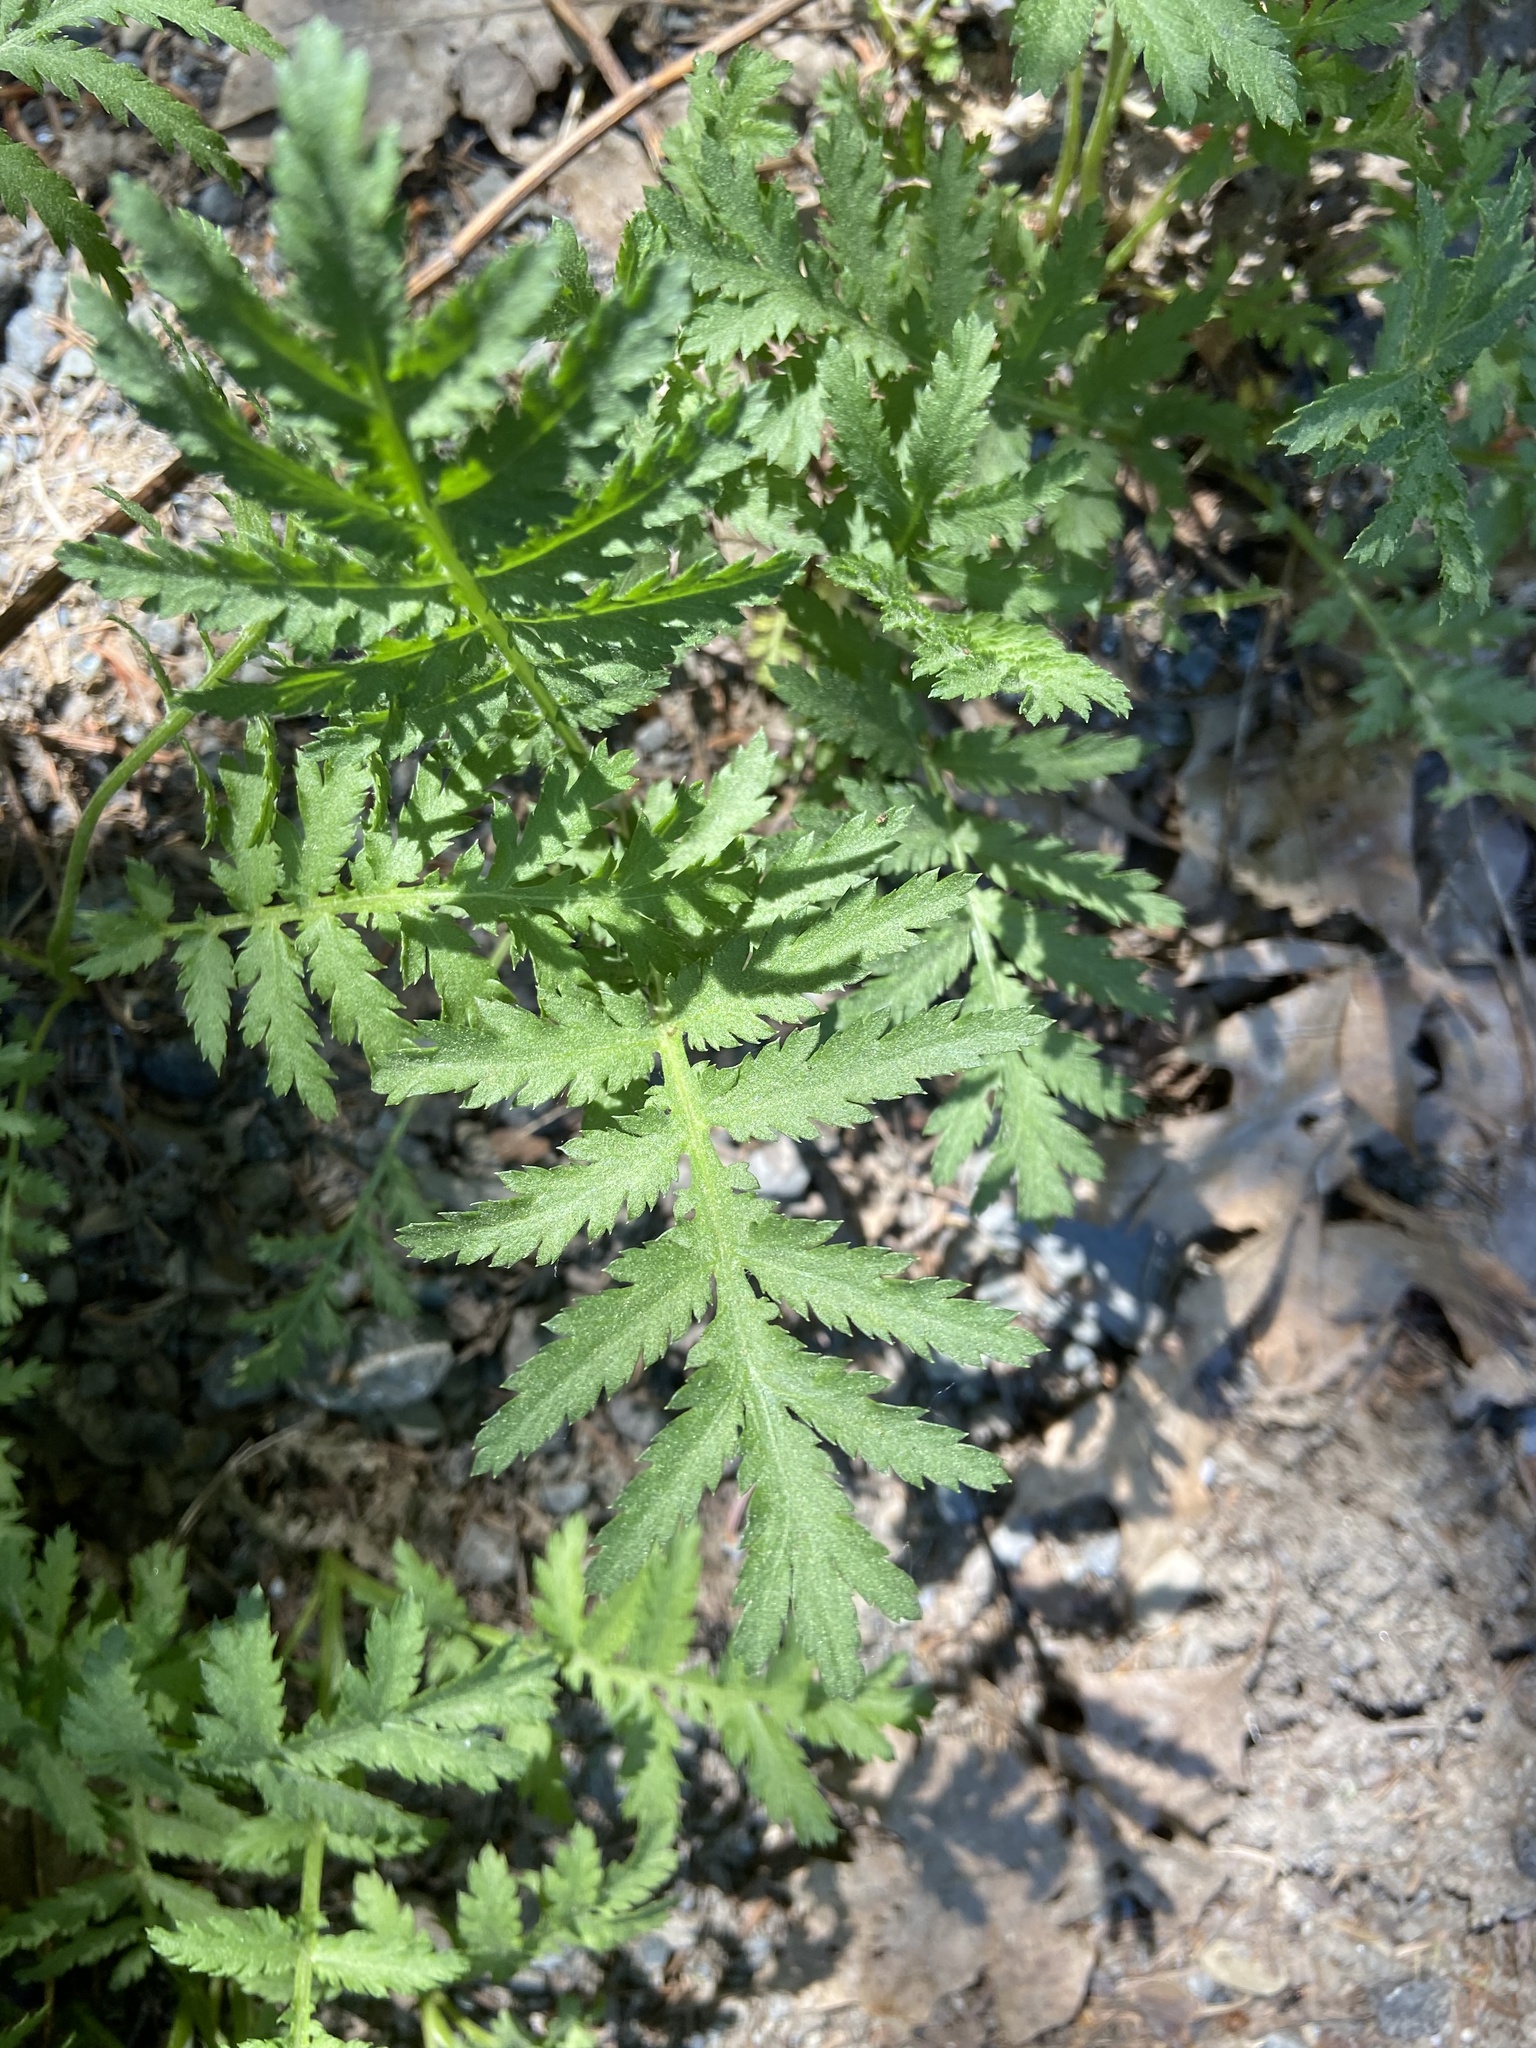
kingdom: Plantae
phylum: Tracheophyta
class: Magnoliopsida
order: Asterales
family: Asteraceae
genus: Tanacetum
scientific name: Tanacetum vulgare
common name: Common tansy
